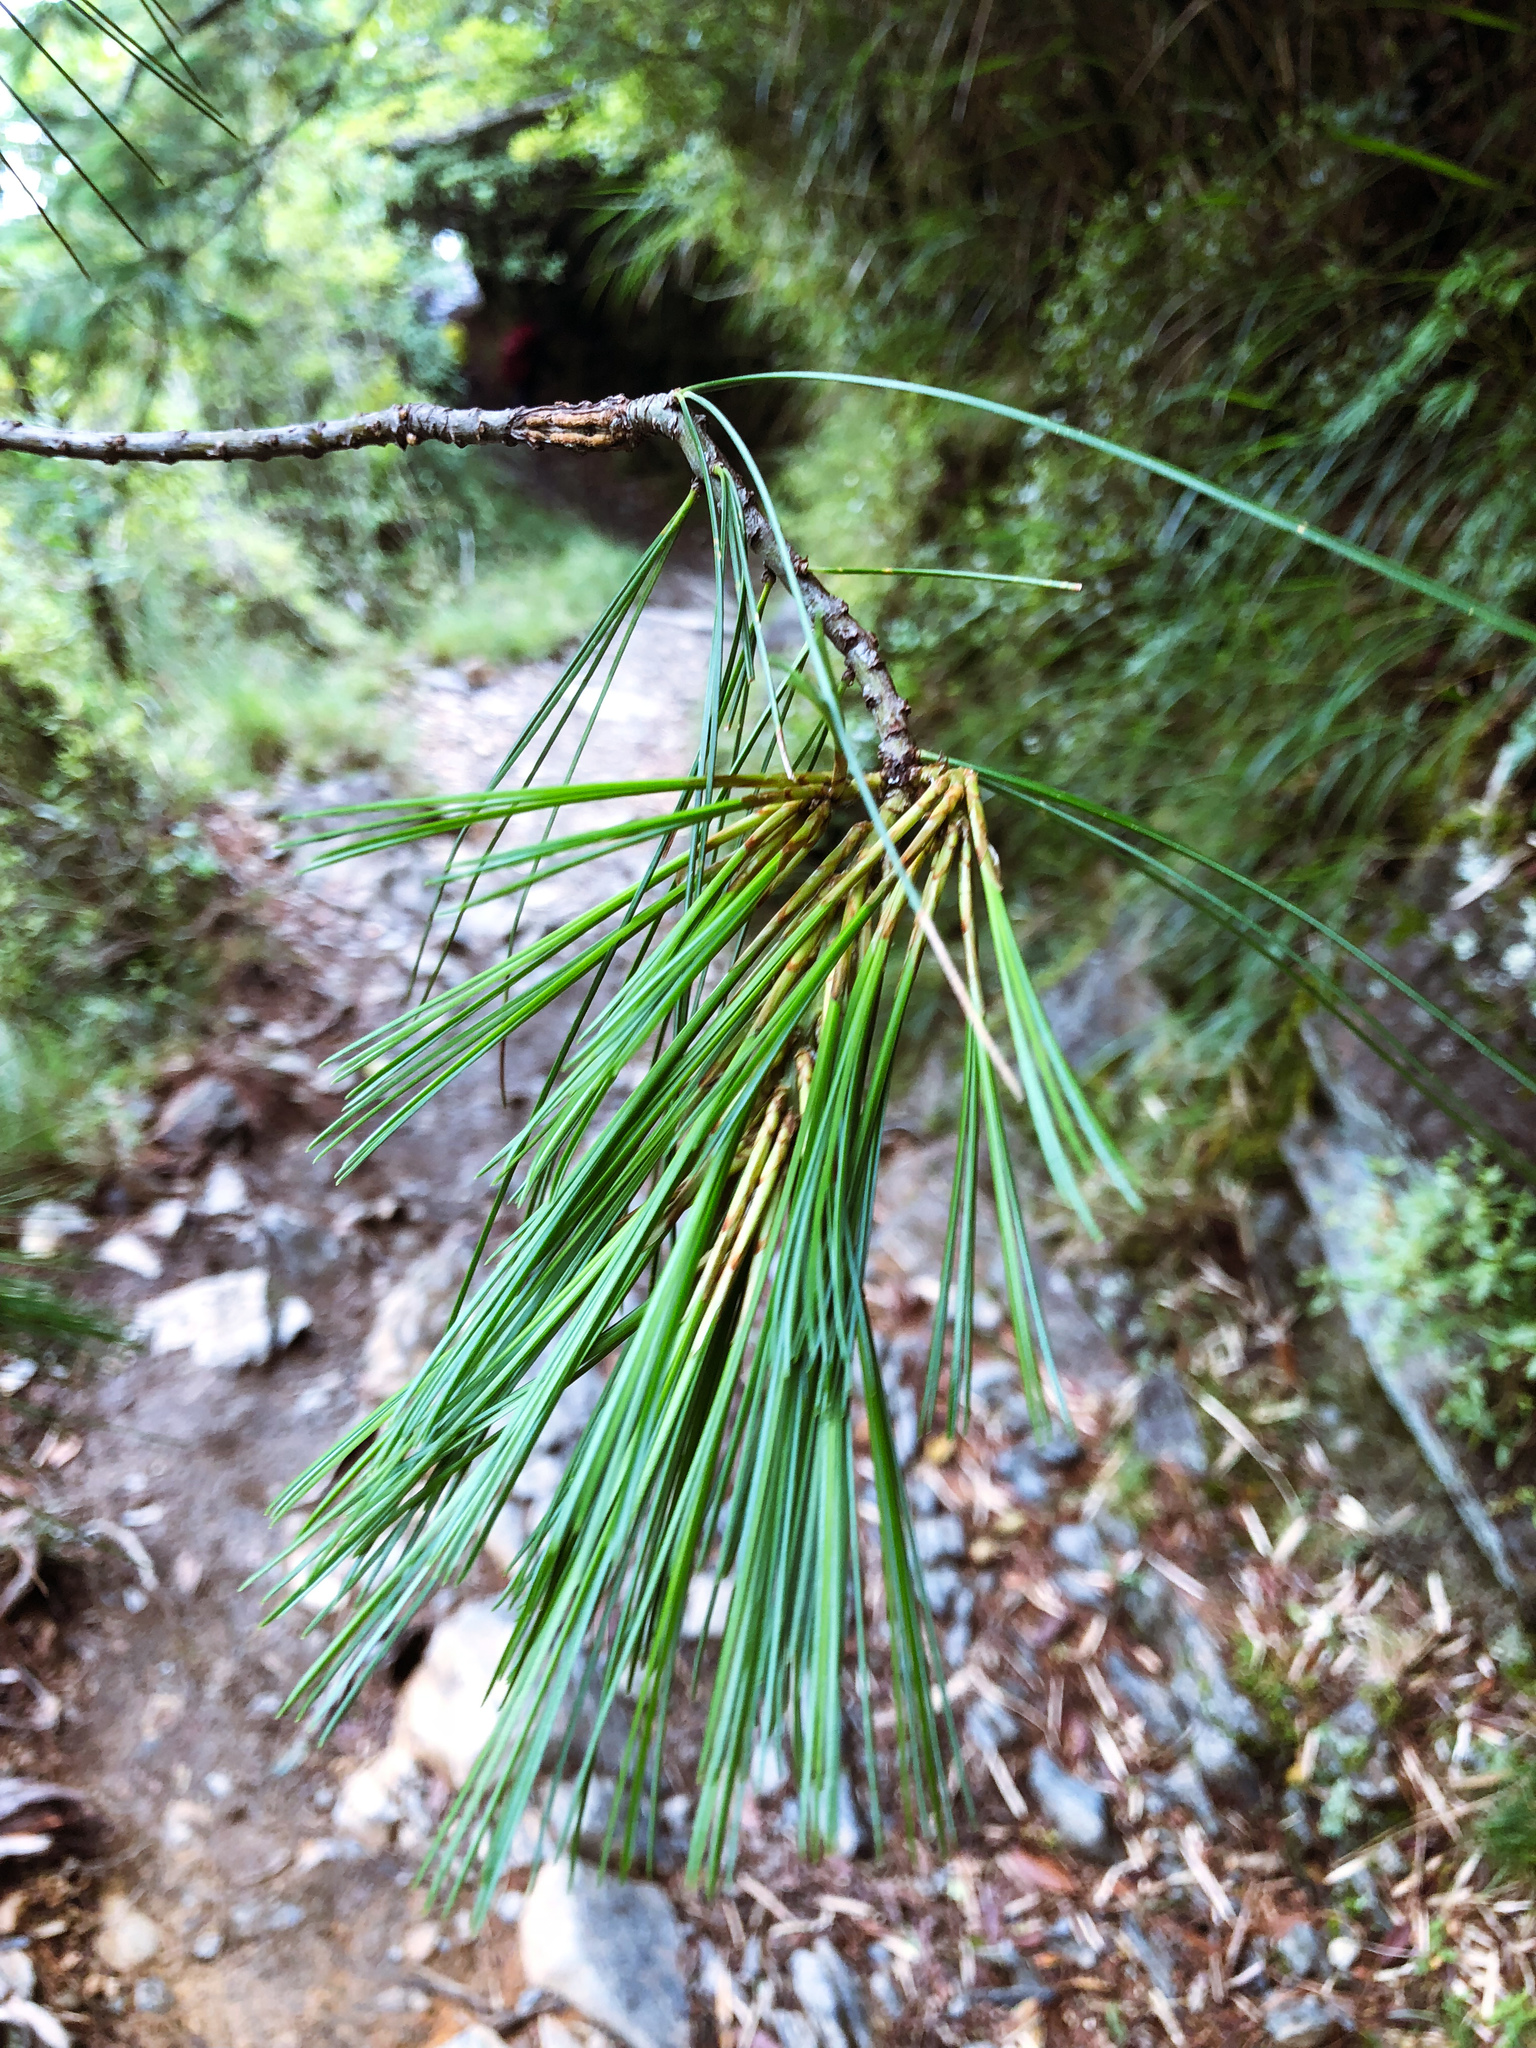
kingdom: Plantae
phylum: Tracheophyta
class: Pinopsida
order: Pinales
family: Pinaceae
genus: Pinus
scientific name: Pinus armandii
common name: Armand's pine
